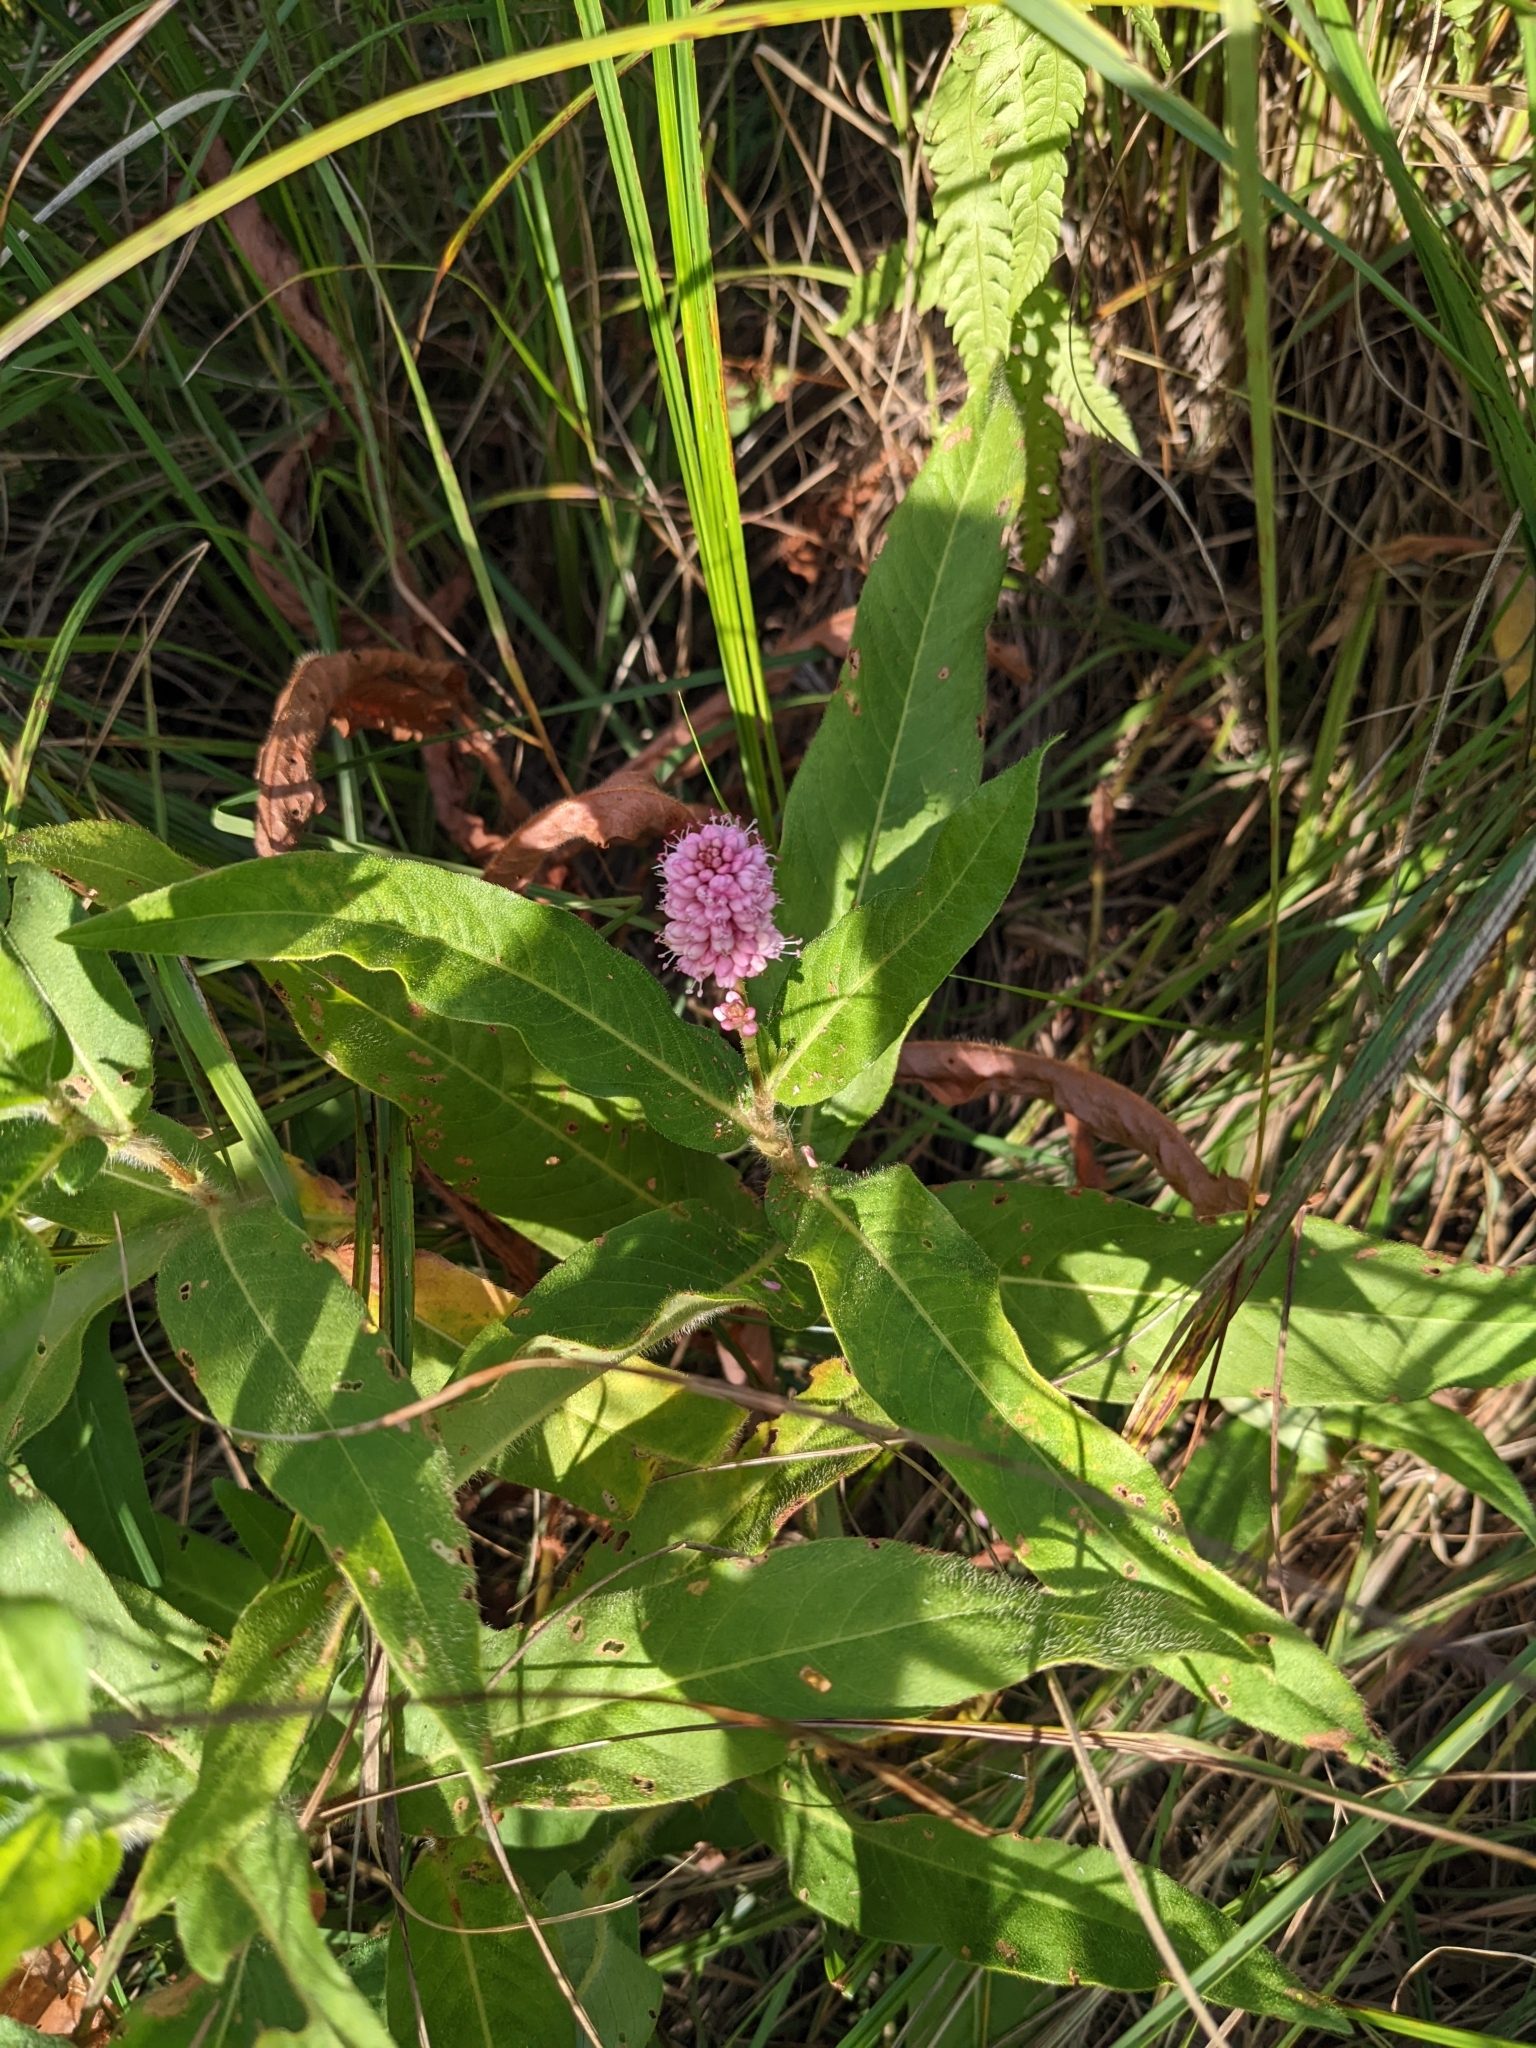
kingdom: Plantae
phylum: Tracheophyta
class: Magnoliopsida
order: Caryophyllales
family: Polygonaceae
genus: Persicaria
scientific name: Persicaria amphibia
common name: Amphibious bistort
